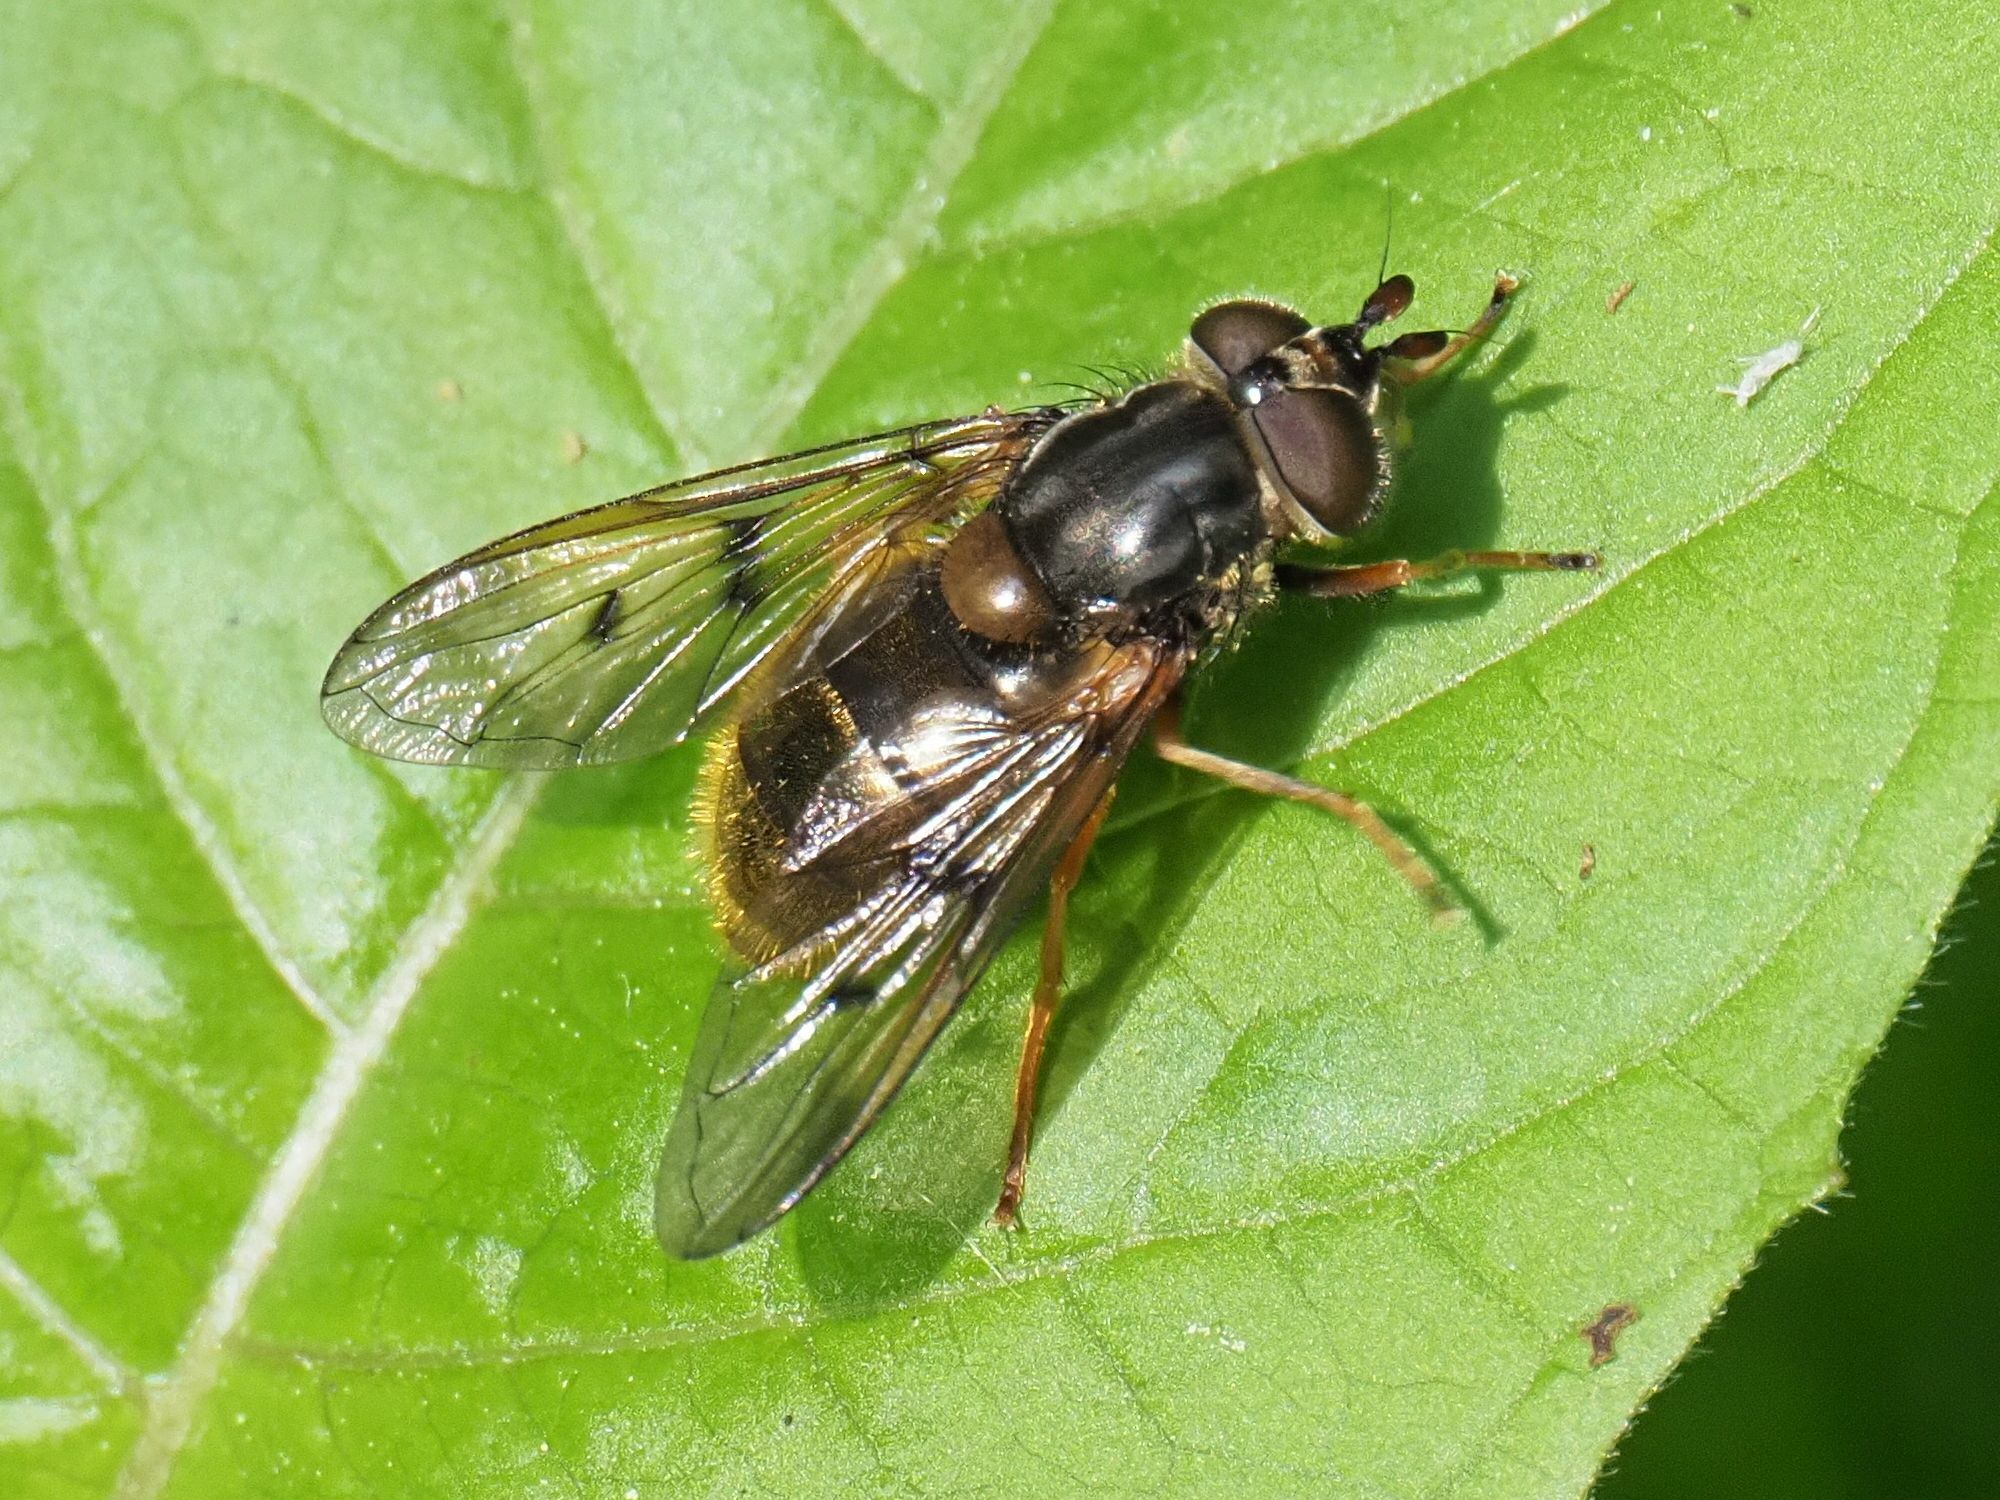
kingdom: Animalia
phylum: Arthropoda
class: Insecta
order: Diptera
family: Syrphidae
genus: Ferdinandea
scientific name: Ferdinandea cuprea
